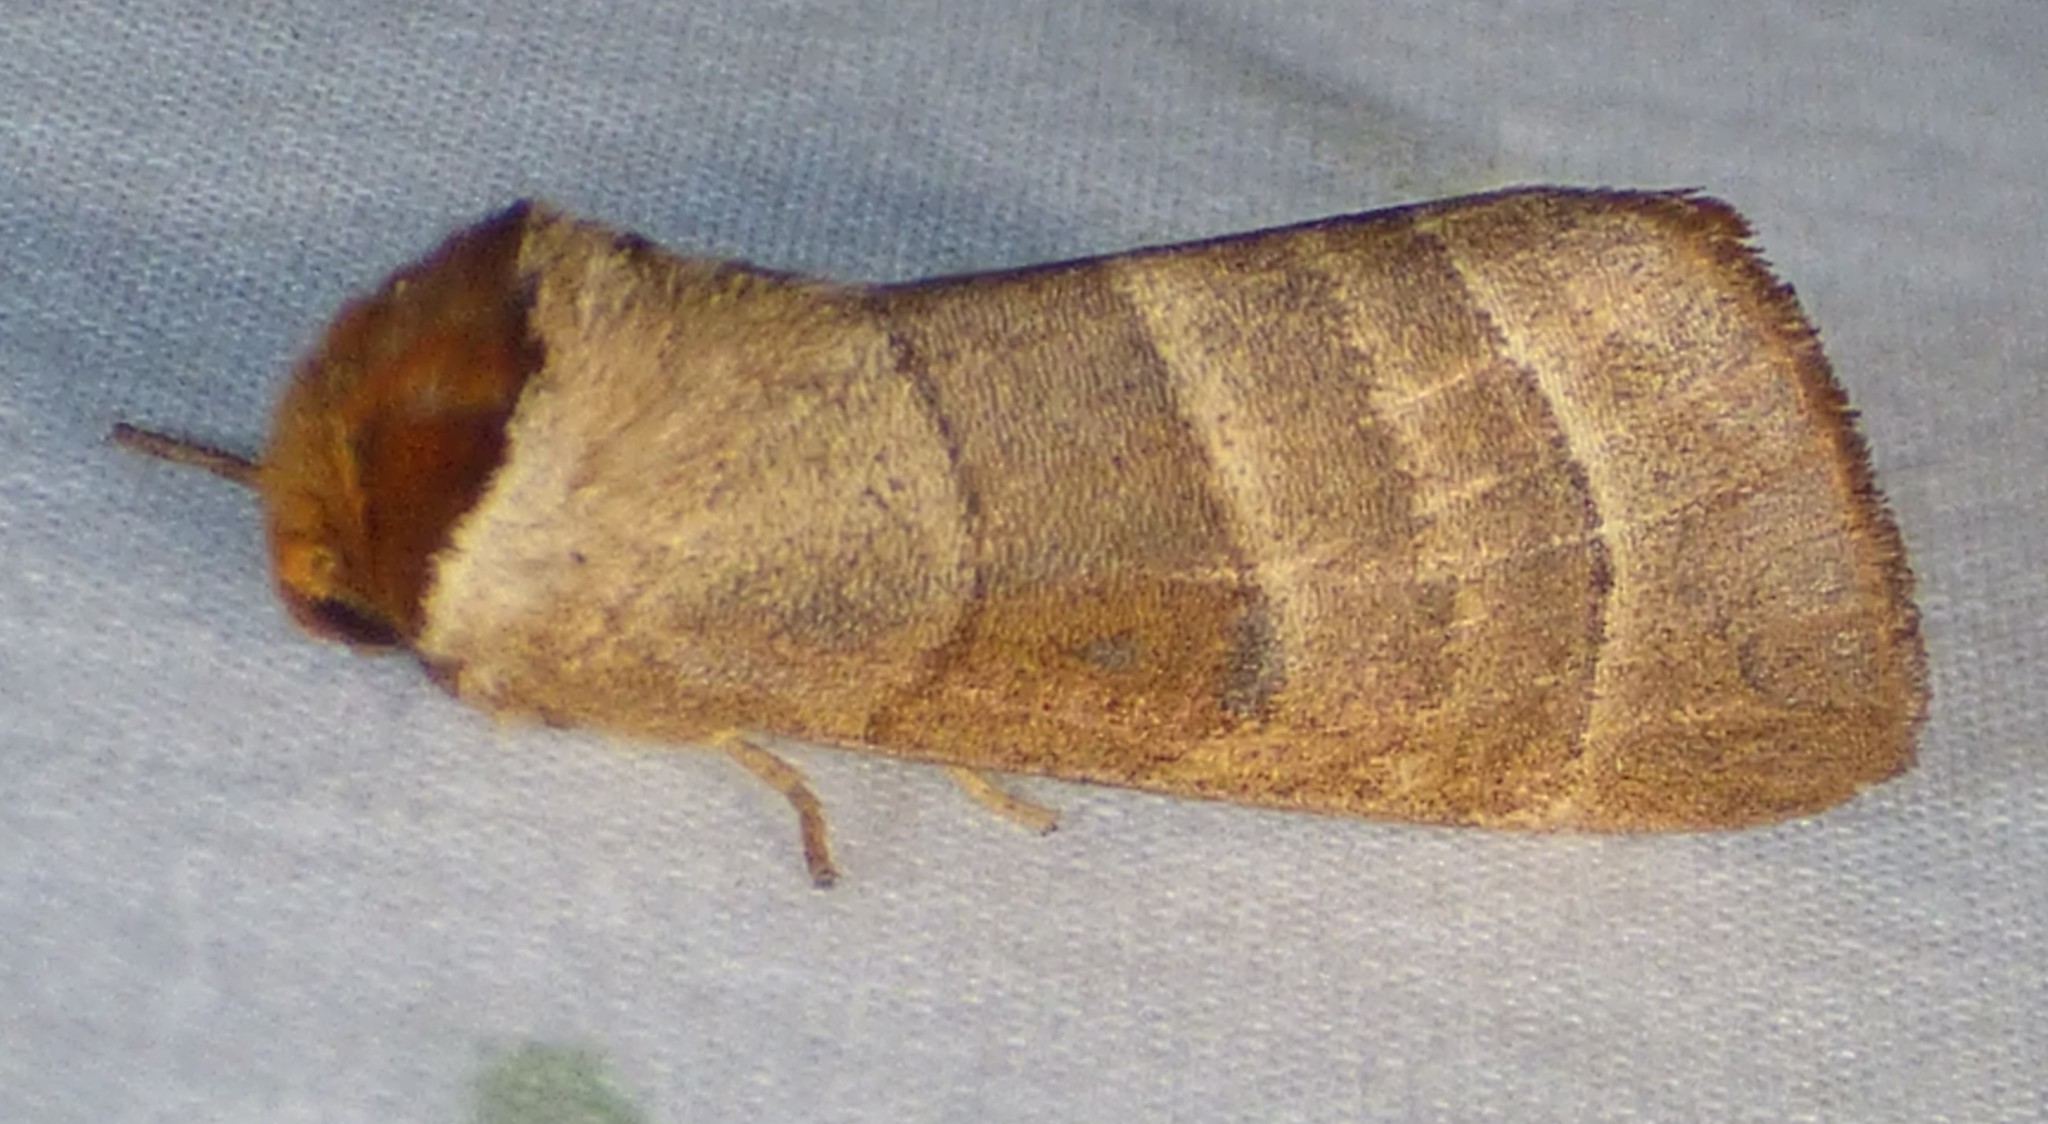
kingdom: Animalia
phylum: Arthropoda
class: Insecta
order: Lepidoptera
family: Notodontidae
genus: Datana
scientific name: Datana integerrima
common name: Walnut caterpillar
